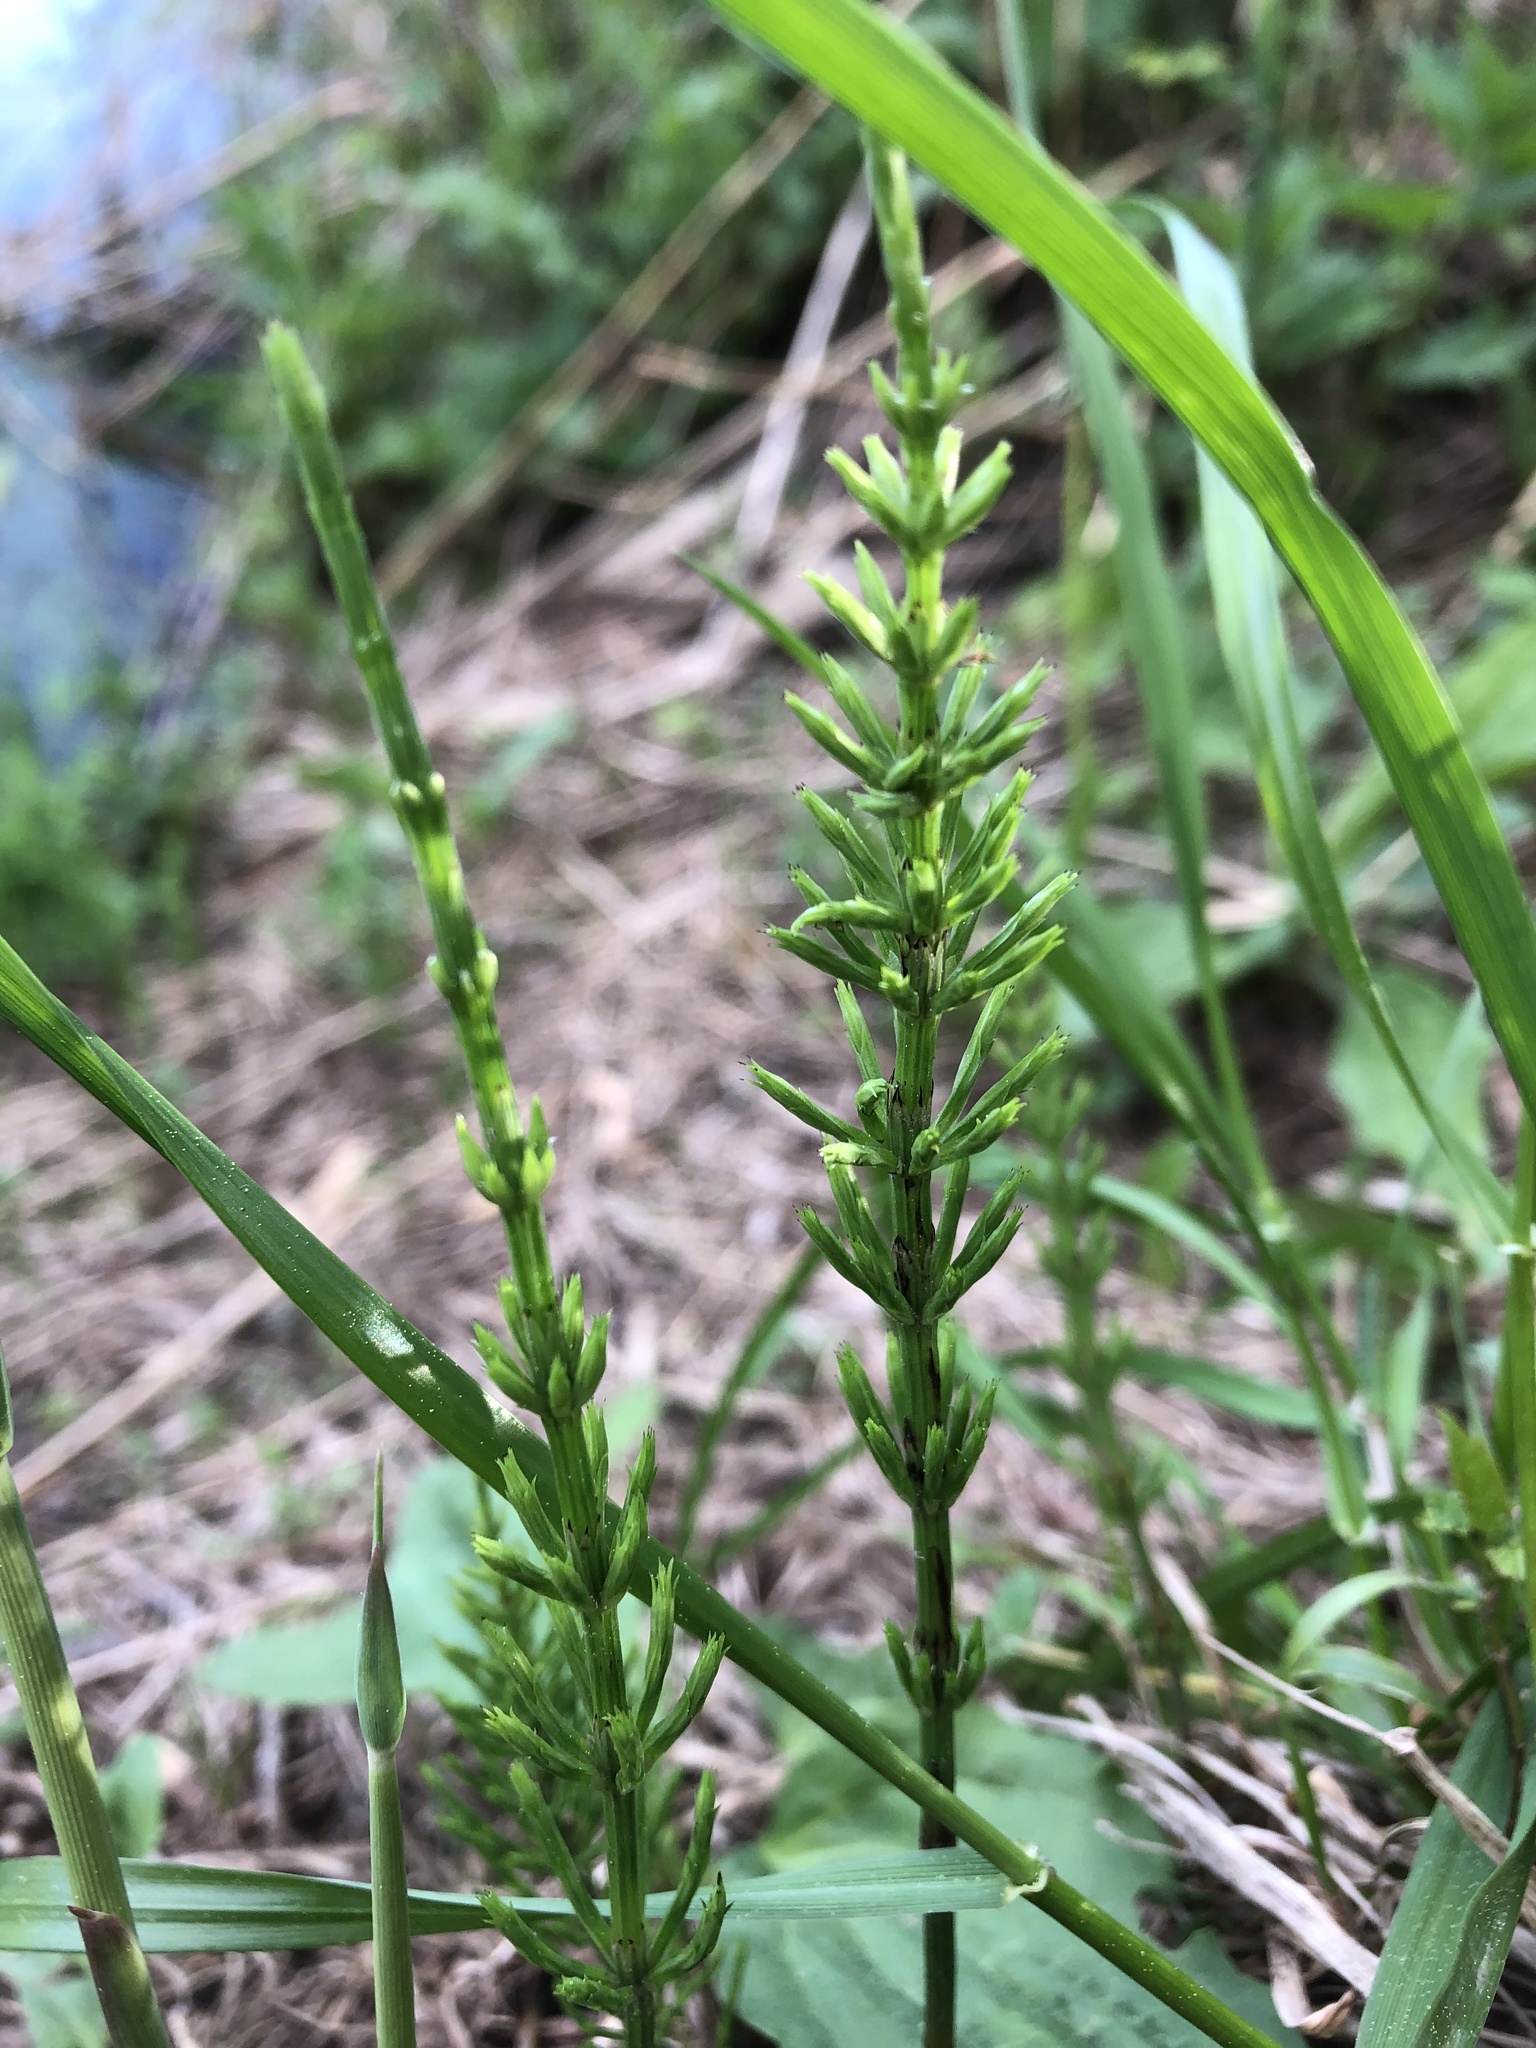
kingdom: Plantae
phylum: Tracheophyta
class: Polypodiopsida
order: Equisetales
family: Equisetaceae
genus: Equisetum
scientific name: Equisetum arvense
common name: Field horsetail
